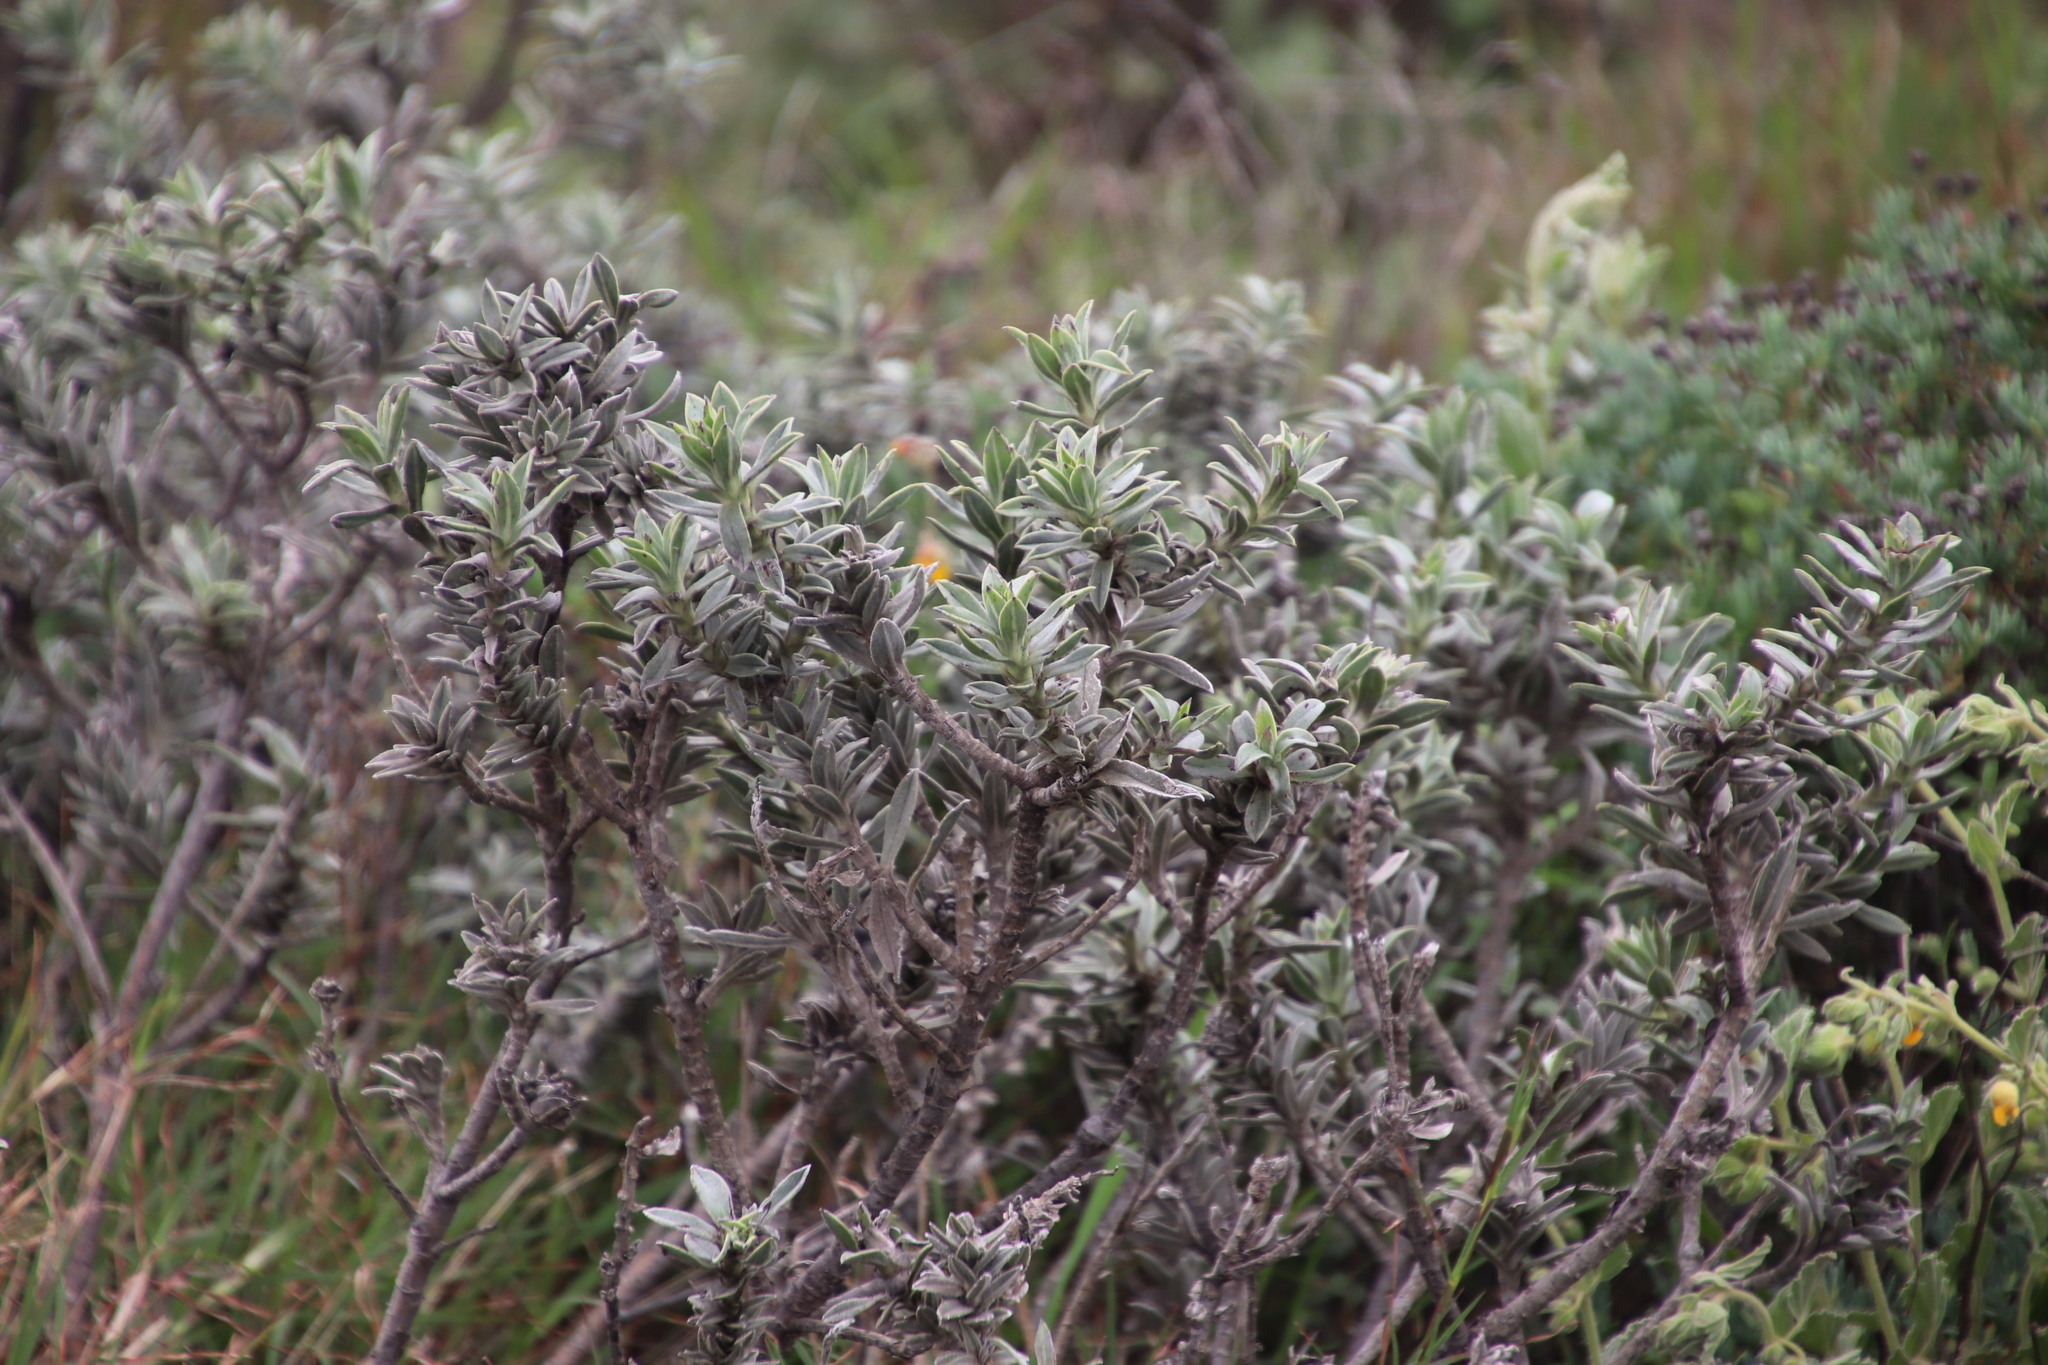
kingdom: Plantae
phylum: Tracheophyta
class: Magnoliopsida
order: Boraginales
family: Boraginaceae
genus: Lobostemon
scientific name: Lobostemon argenteus
